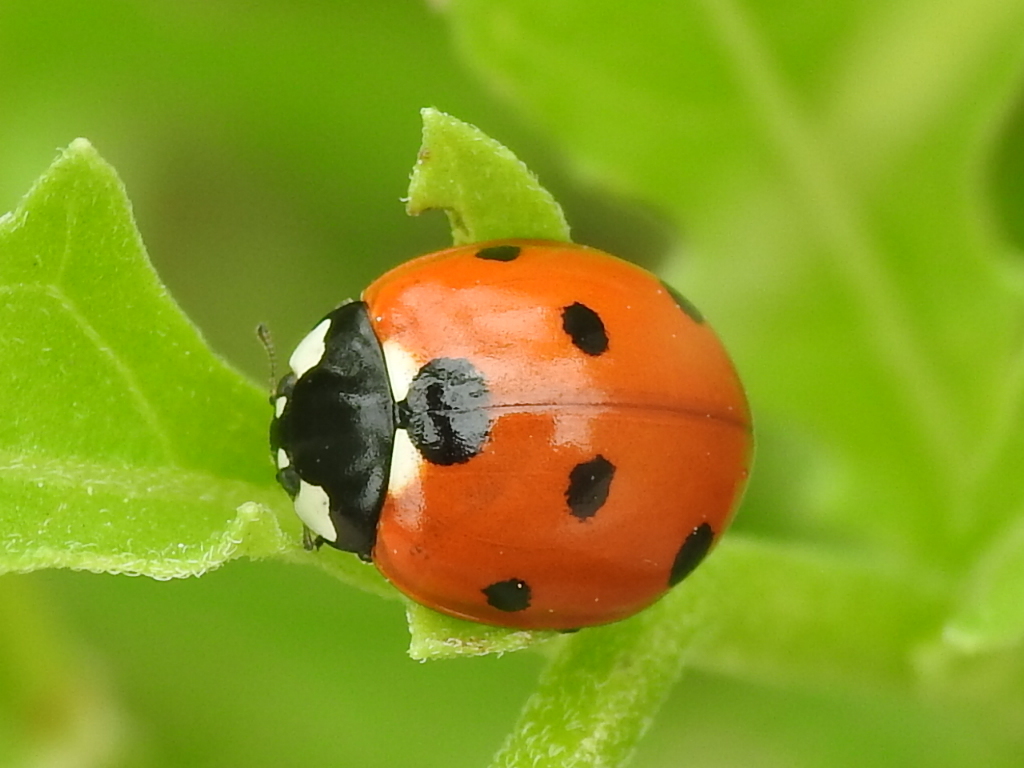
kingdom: Animalia
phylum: Arthropoda
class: Insecta
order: Coleoptera
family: Coccinellidae
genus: Coccinella
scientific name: Coccinella septempunctata
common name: Sevenspotted lady beetle
